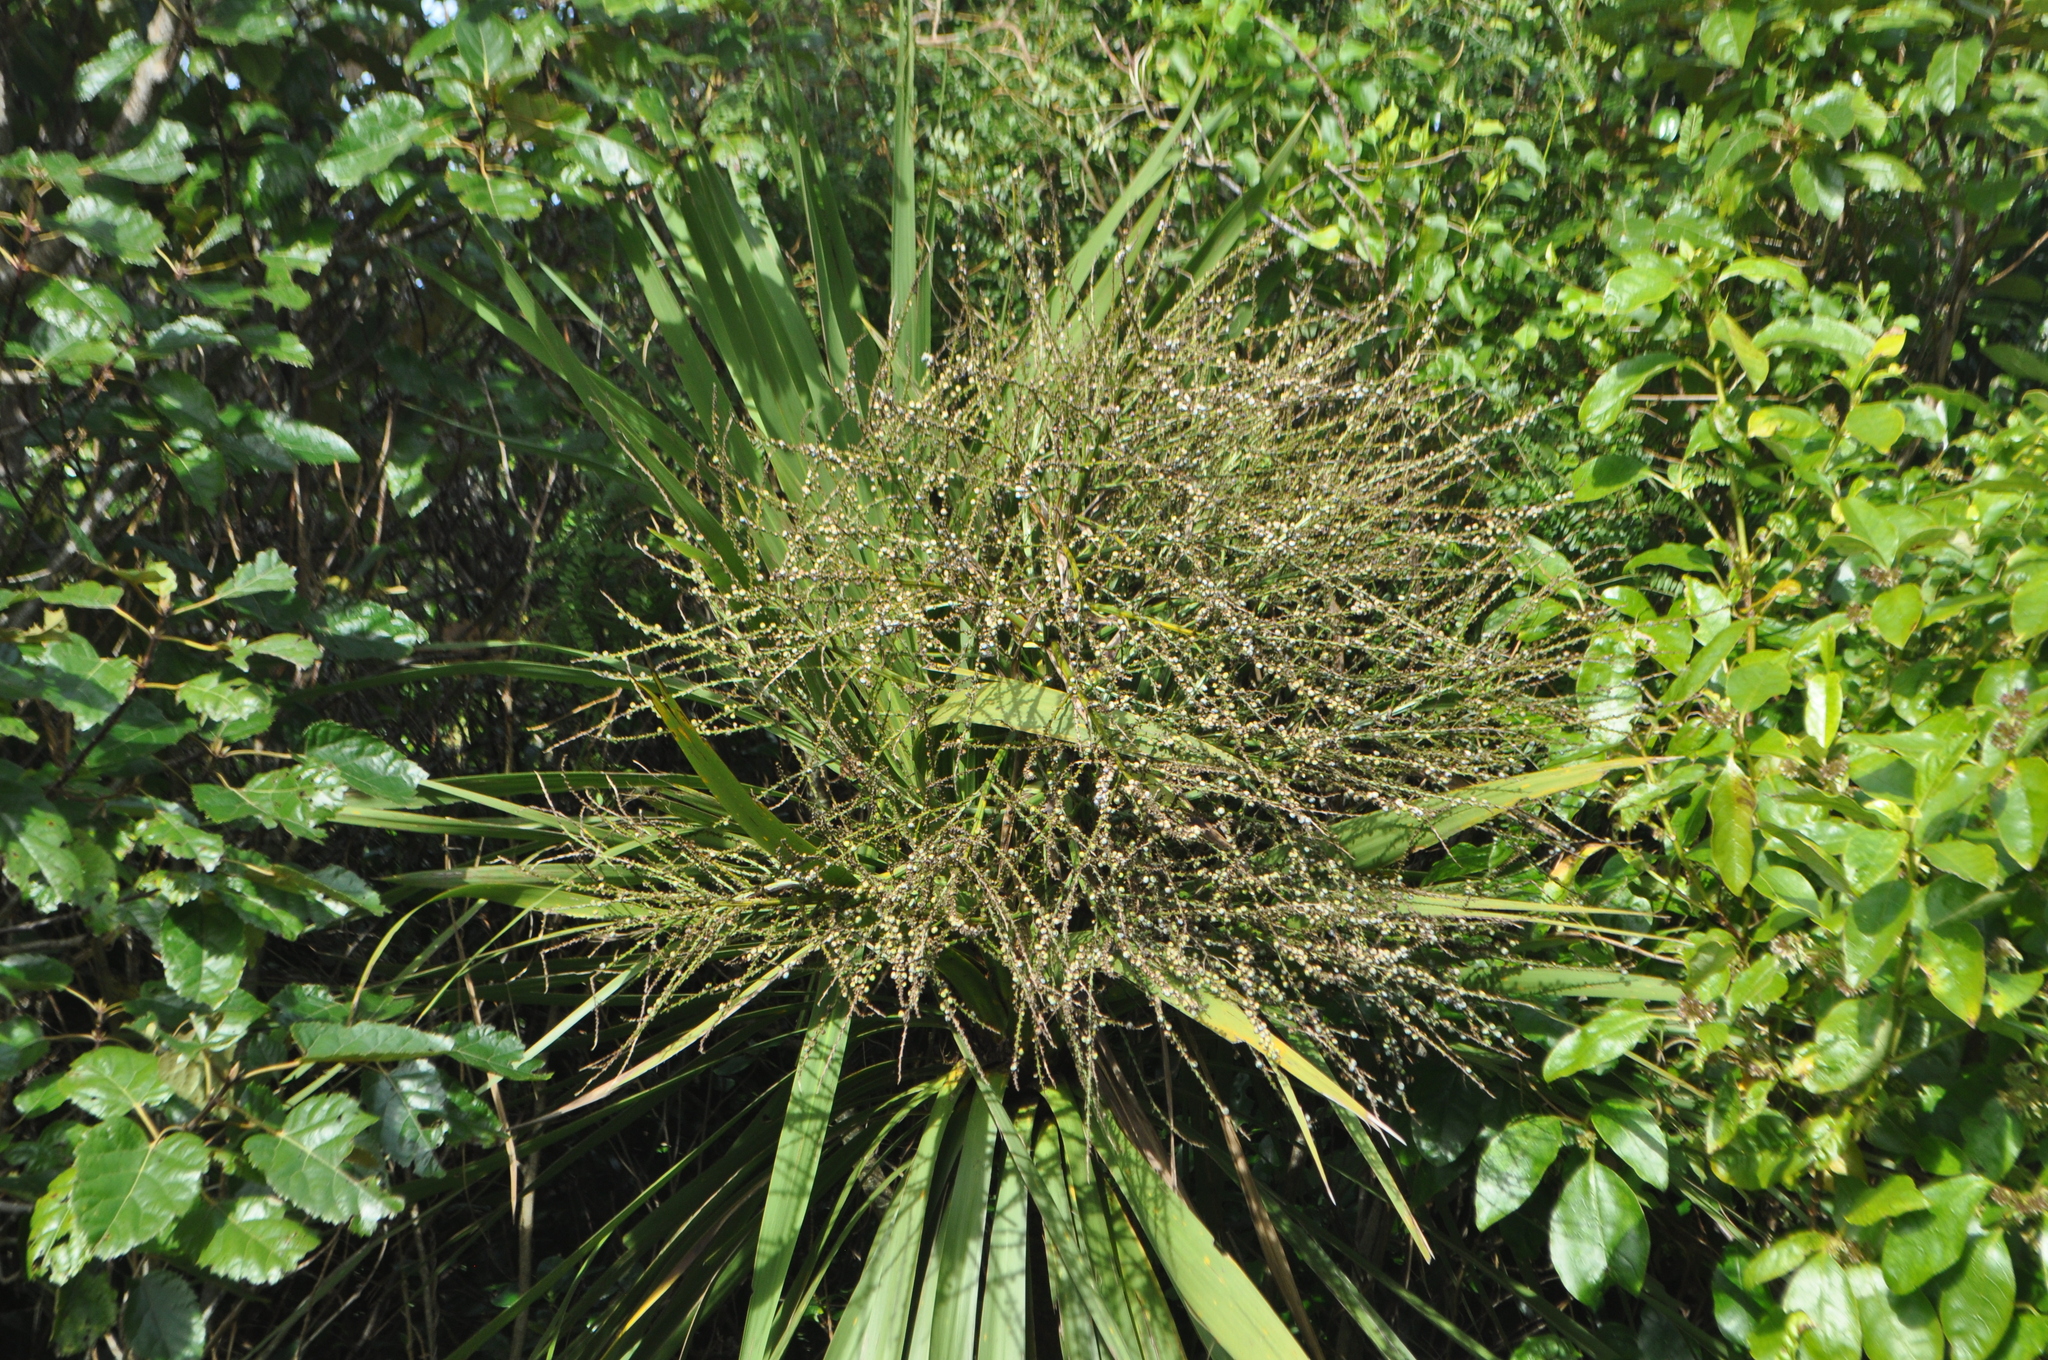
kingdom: Plantae
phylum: Tracheophyta
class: Liliopsida
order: Asparagales
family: Asparagaceae
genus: Cordyline
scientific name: Cordyline australis
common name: Cabbage-palm
